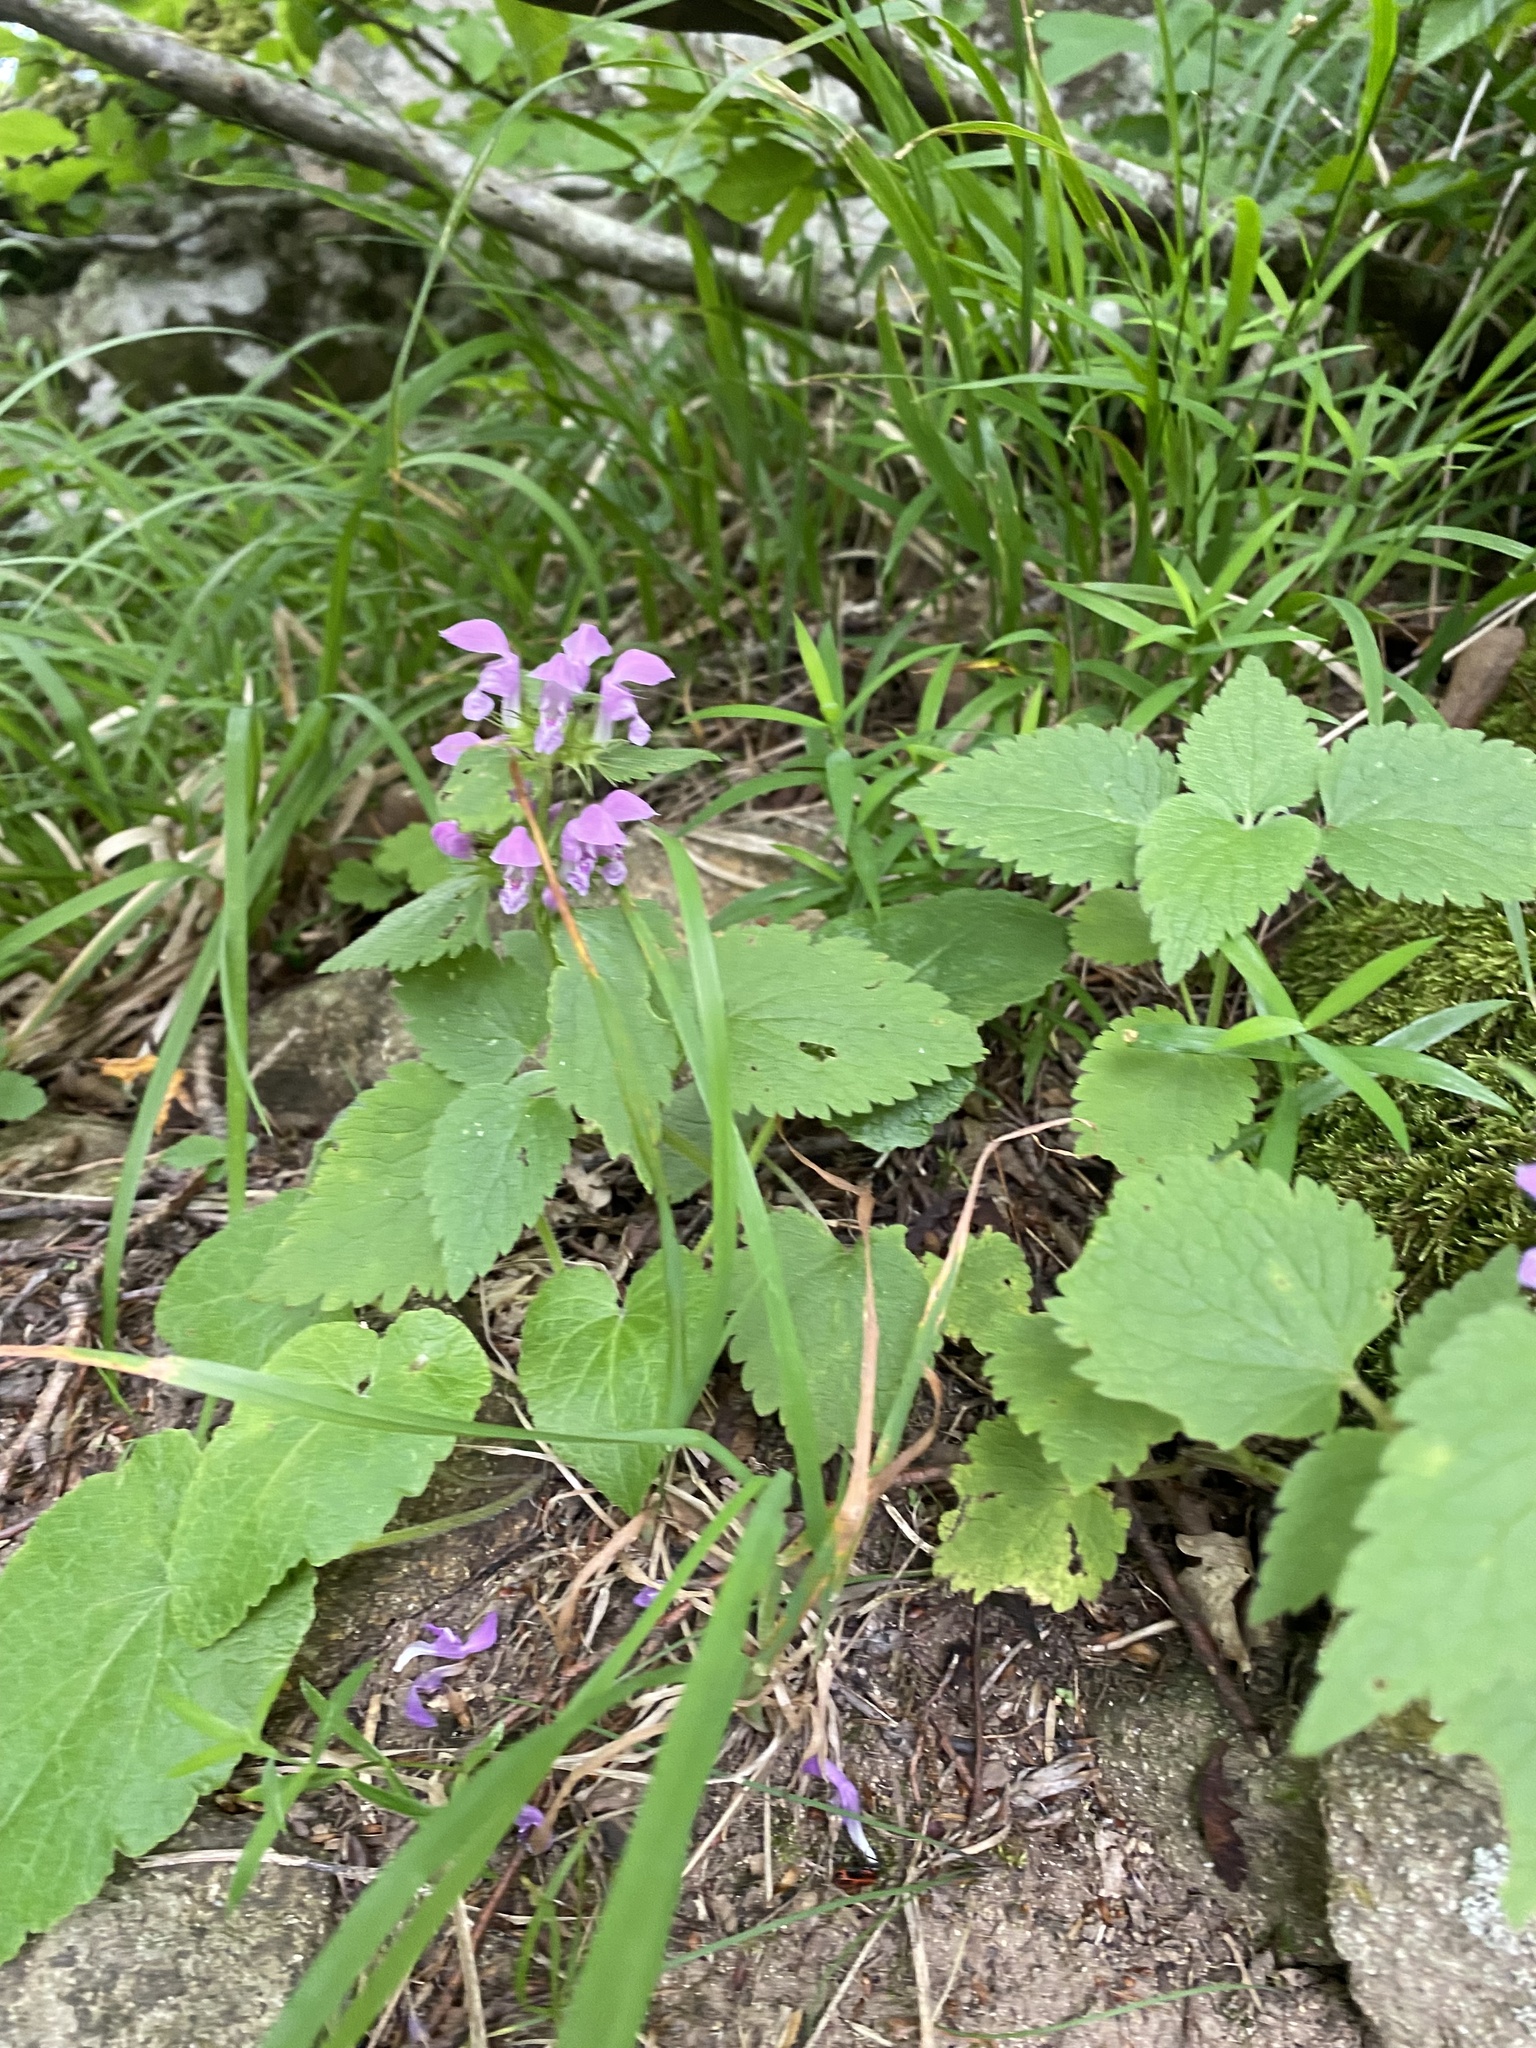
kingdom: Plantae
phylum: Tracheophyta
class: Magnoliopsida
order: Lamiales
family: Lamiaceae
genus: Lamium
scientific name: Lamium maculatum
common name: Spotted dead-nettle
